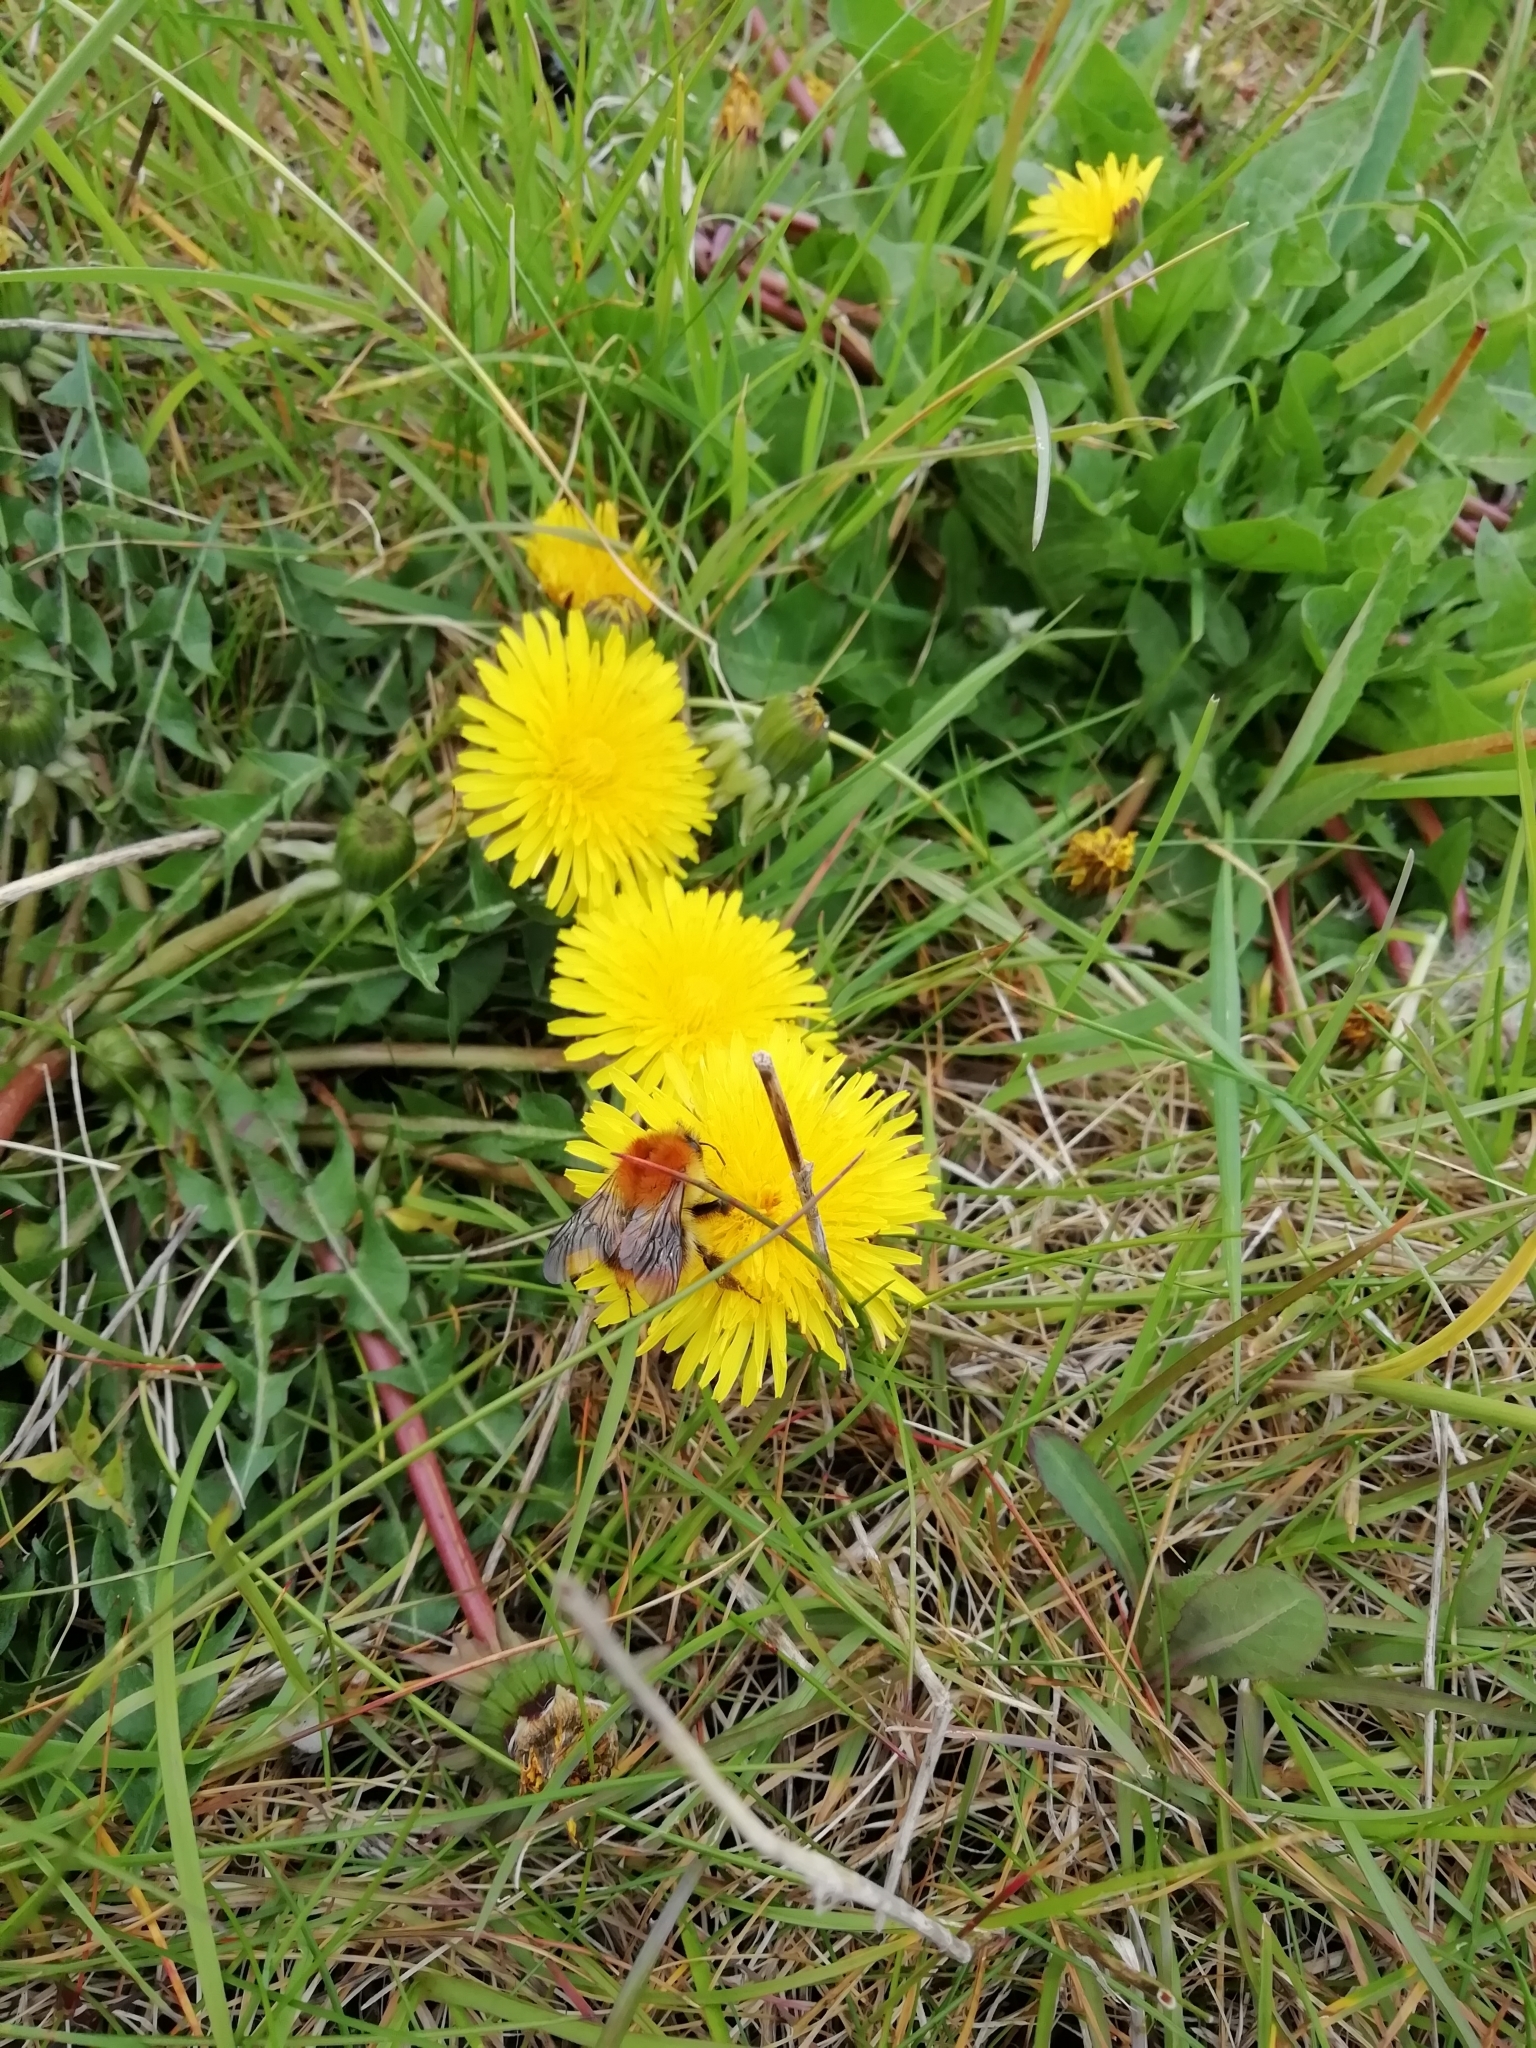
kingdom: Animalia
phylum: Arthropoda
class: Insecta
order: Hymenoptera
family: Apidae
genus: Bombus
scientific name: Bombus pascuorum
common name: Common carder bee
